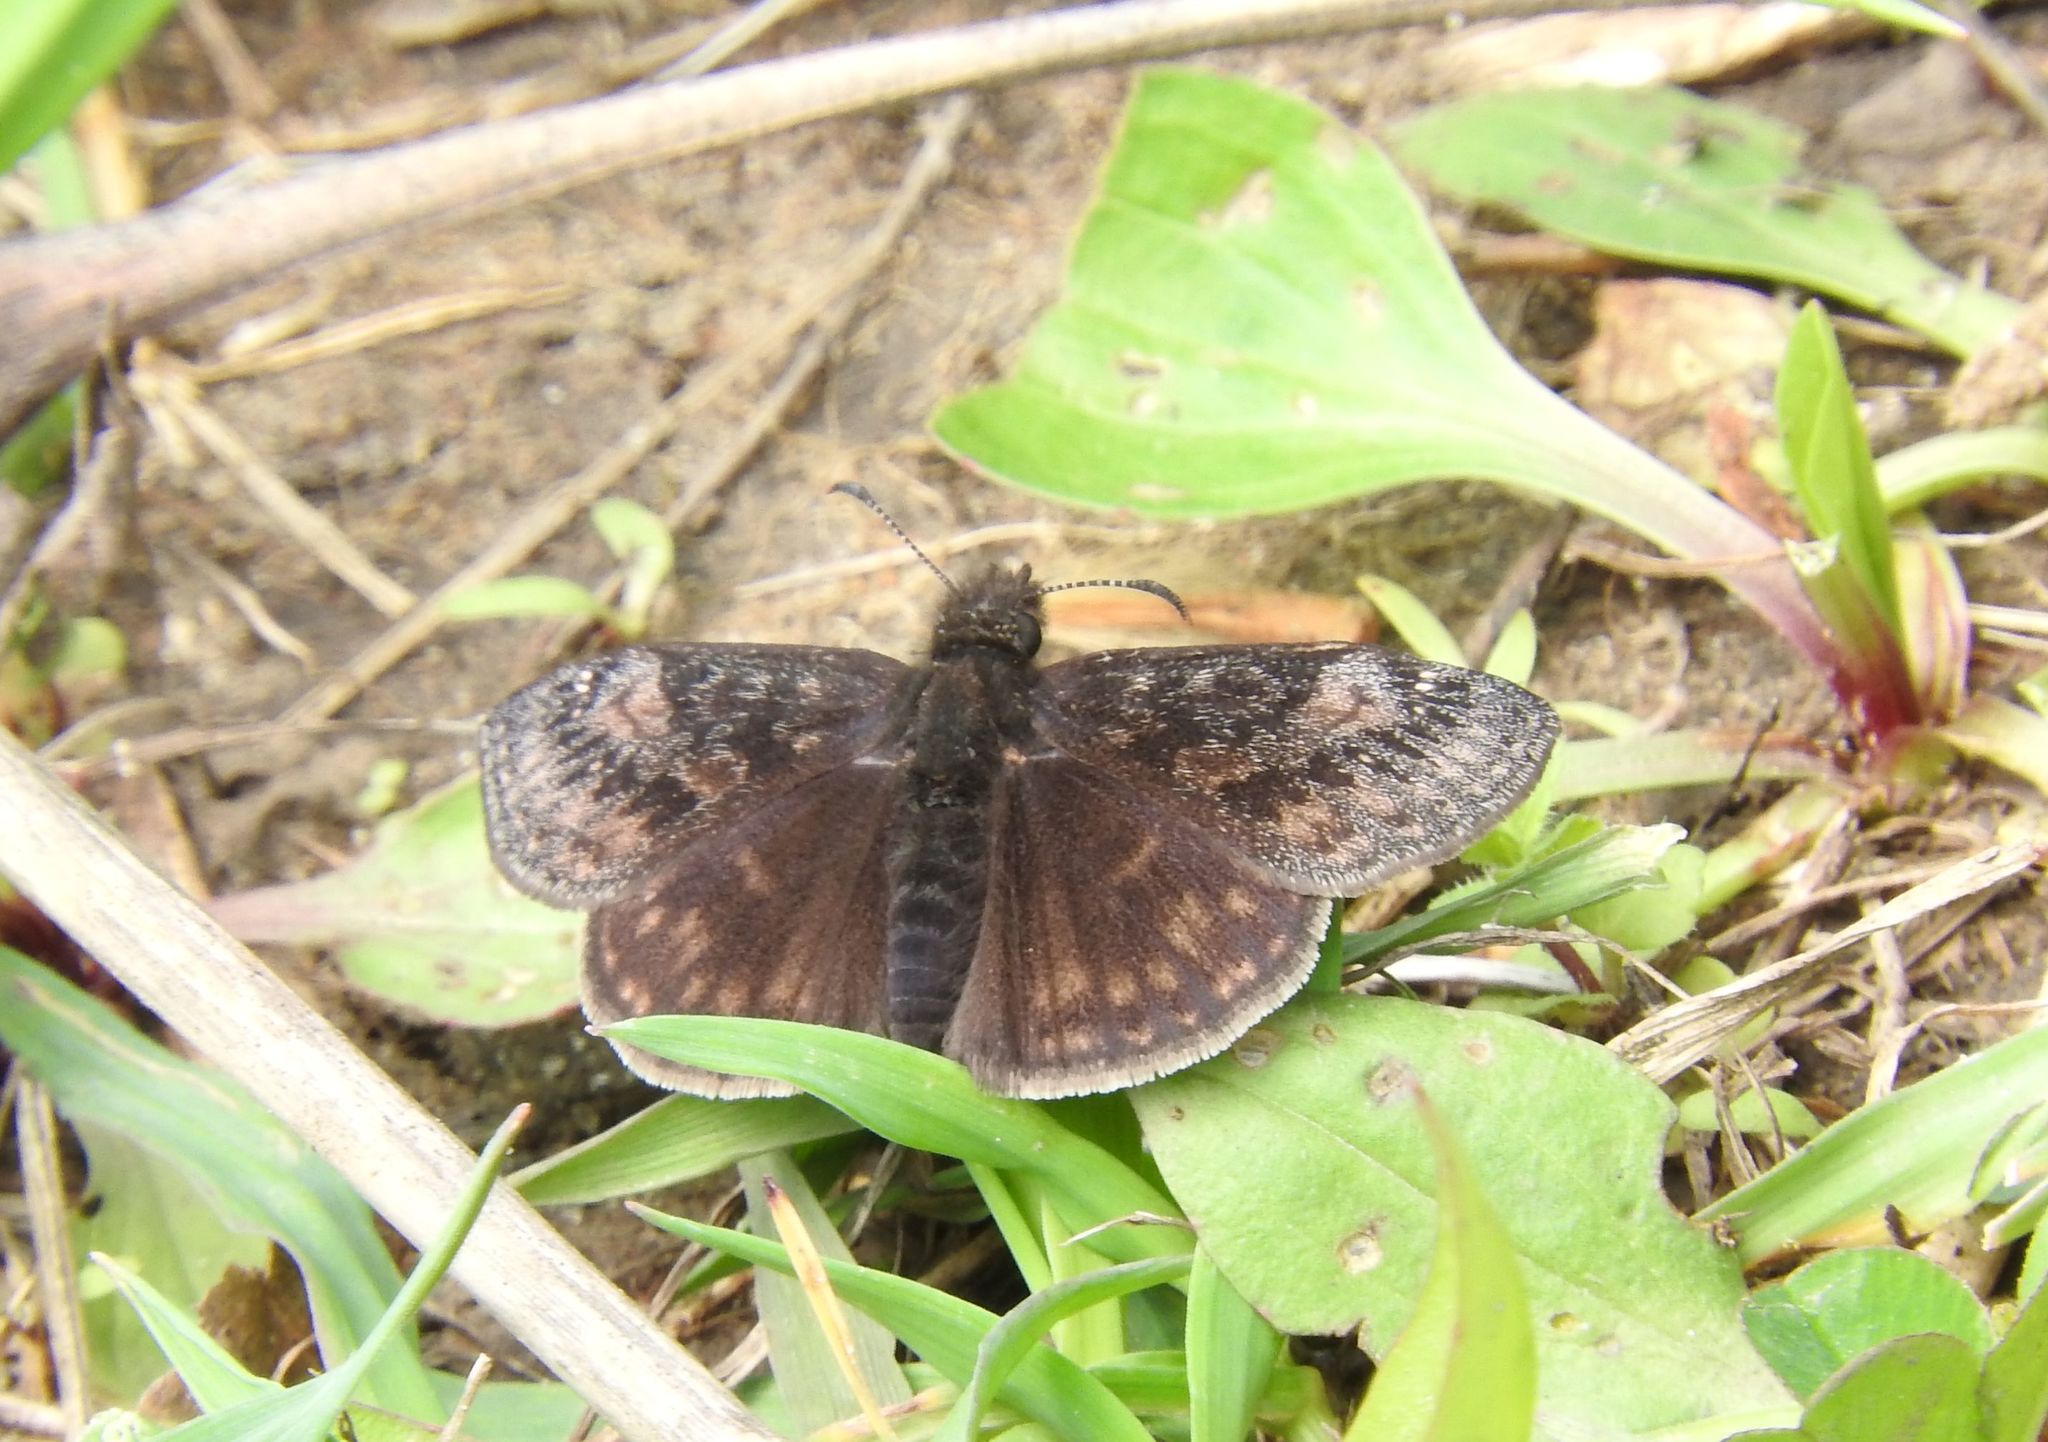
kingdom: Animalia
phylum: Arthropoda
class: Insecta
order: Lepidoptera
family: Hesperiidae
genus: Erynnis
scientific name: Erynnis juvenalis
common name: Juvenal's duskywing
